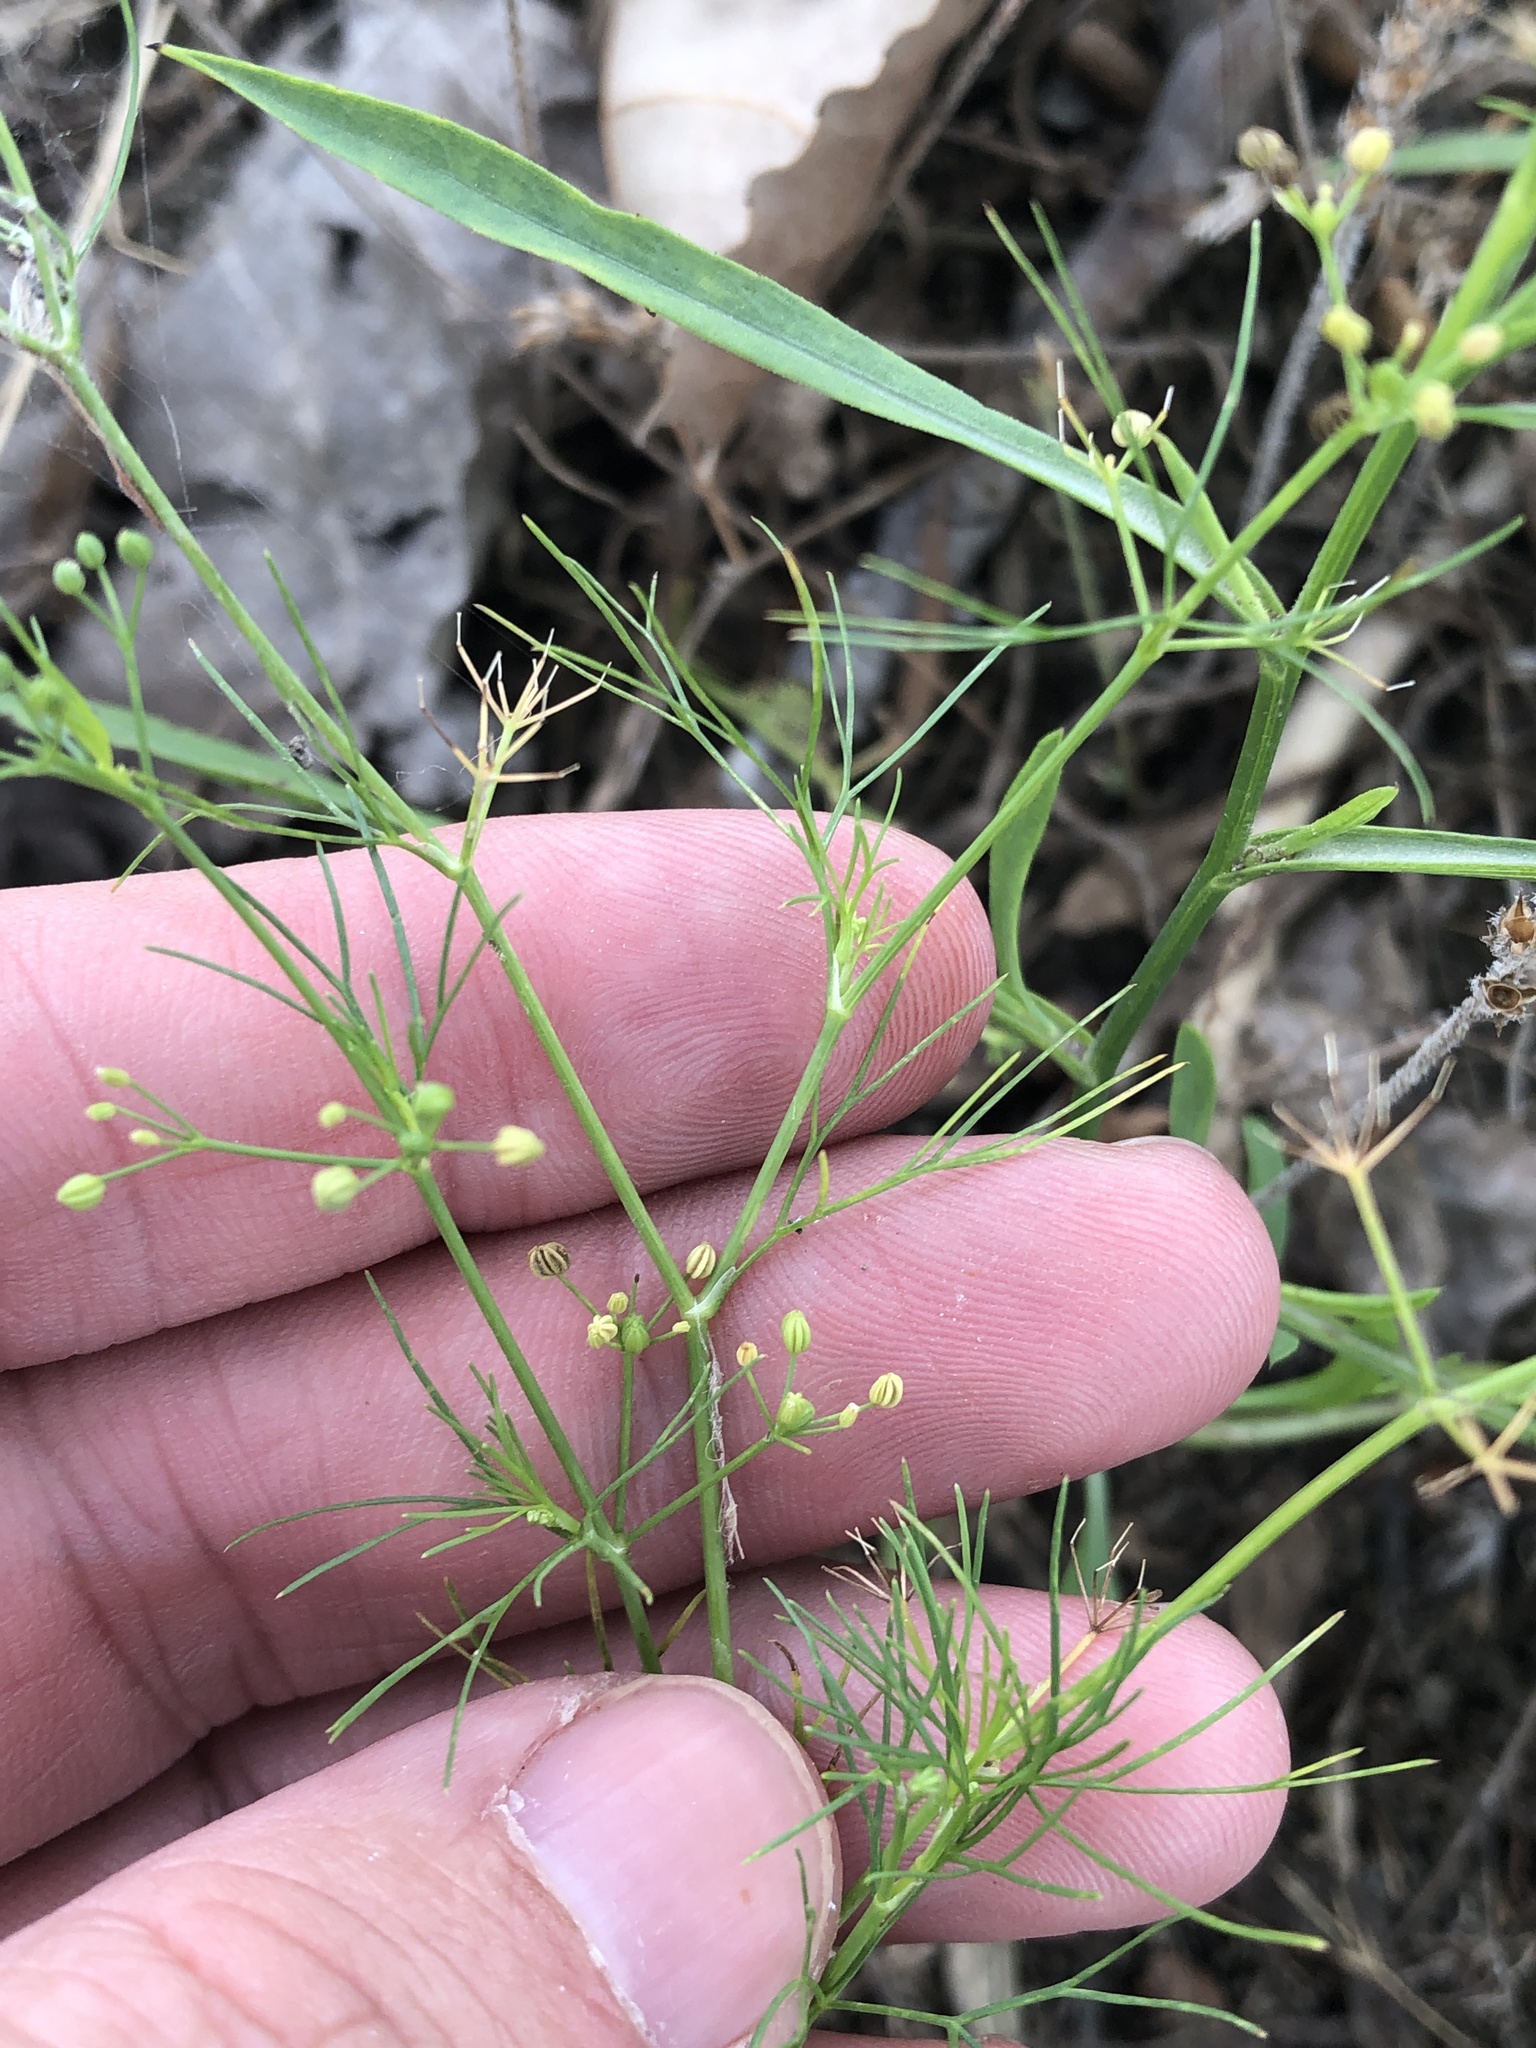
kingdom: Plantae
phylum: Tracheophyta
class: Magnoliopsida
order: Apiales
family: Apiaceae
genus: Cyclospermum
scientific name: Cyclospermum leptophyllum
